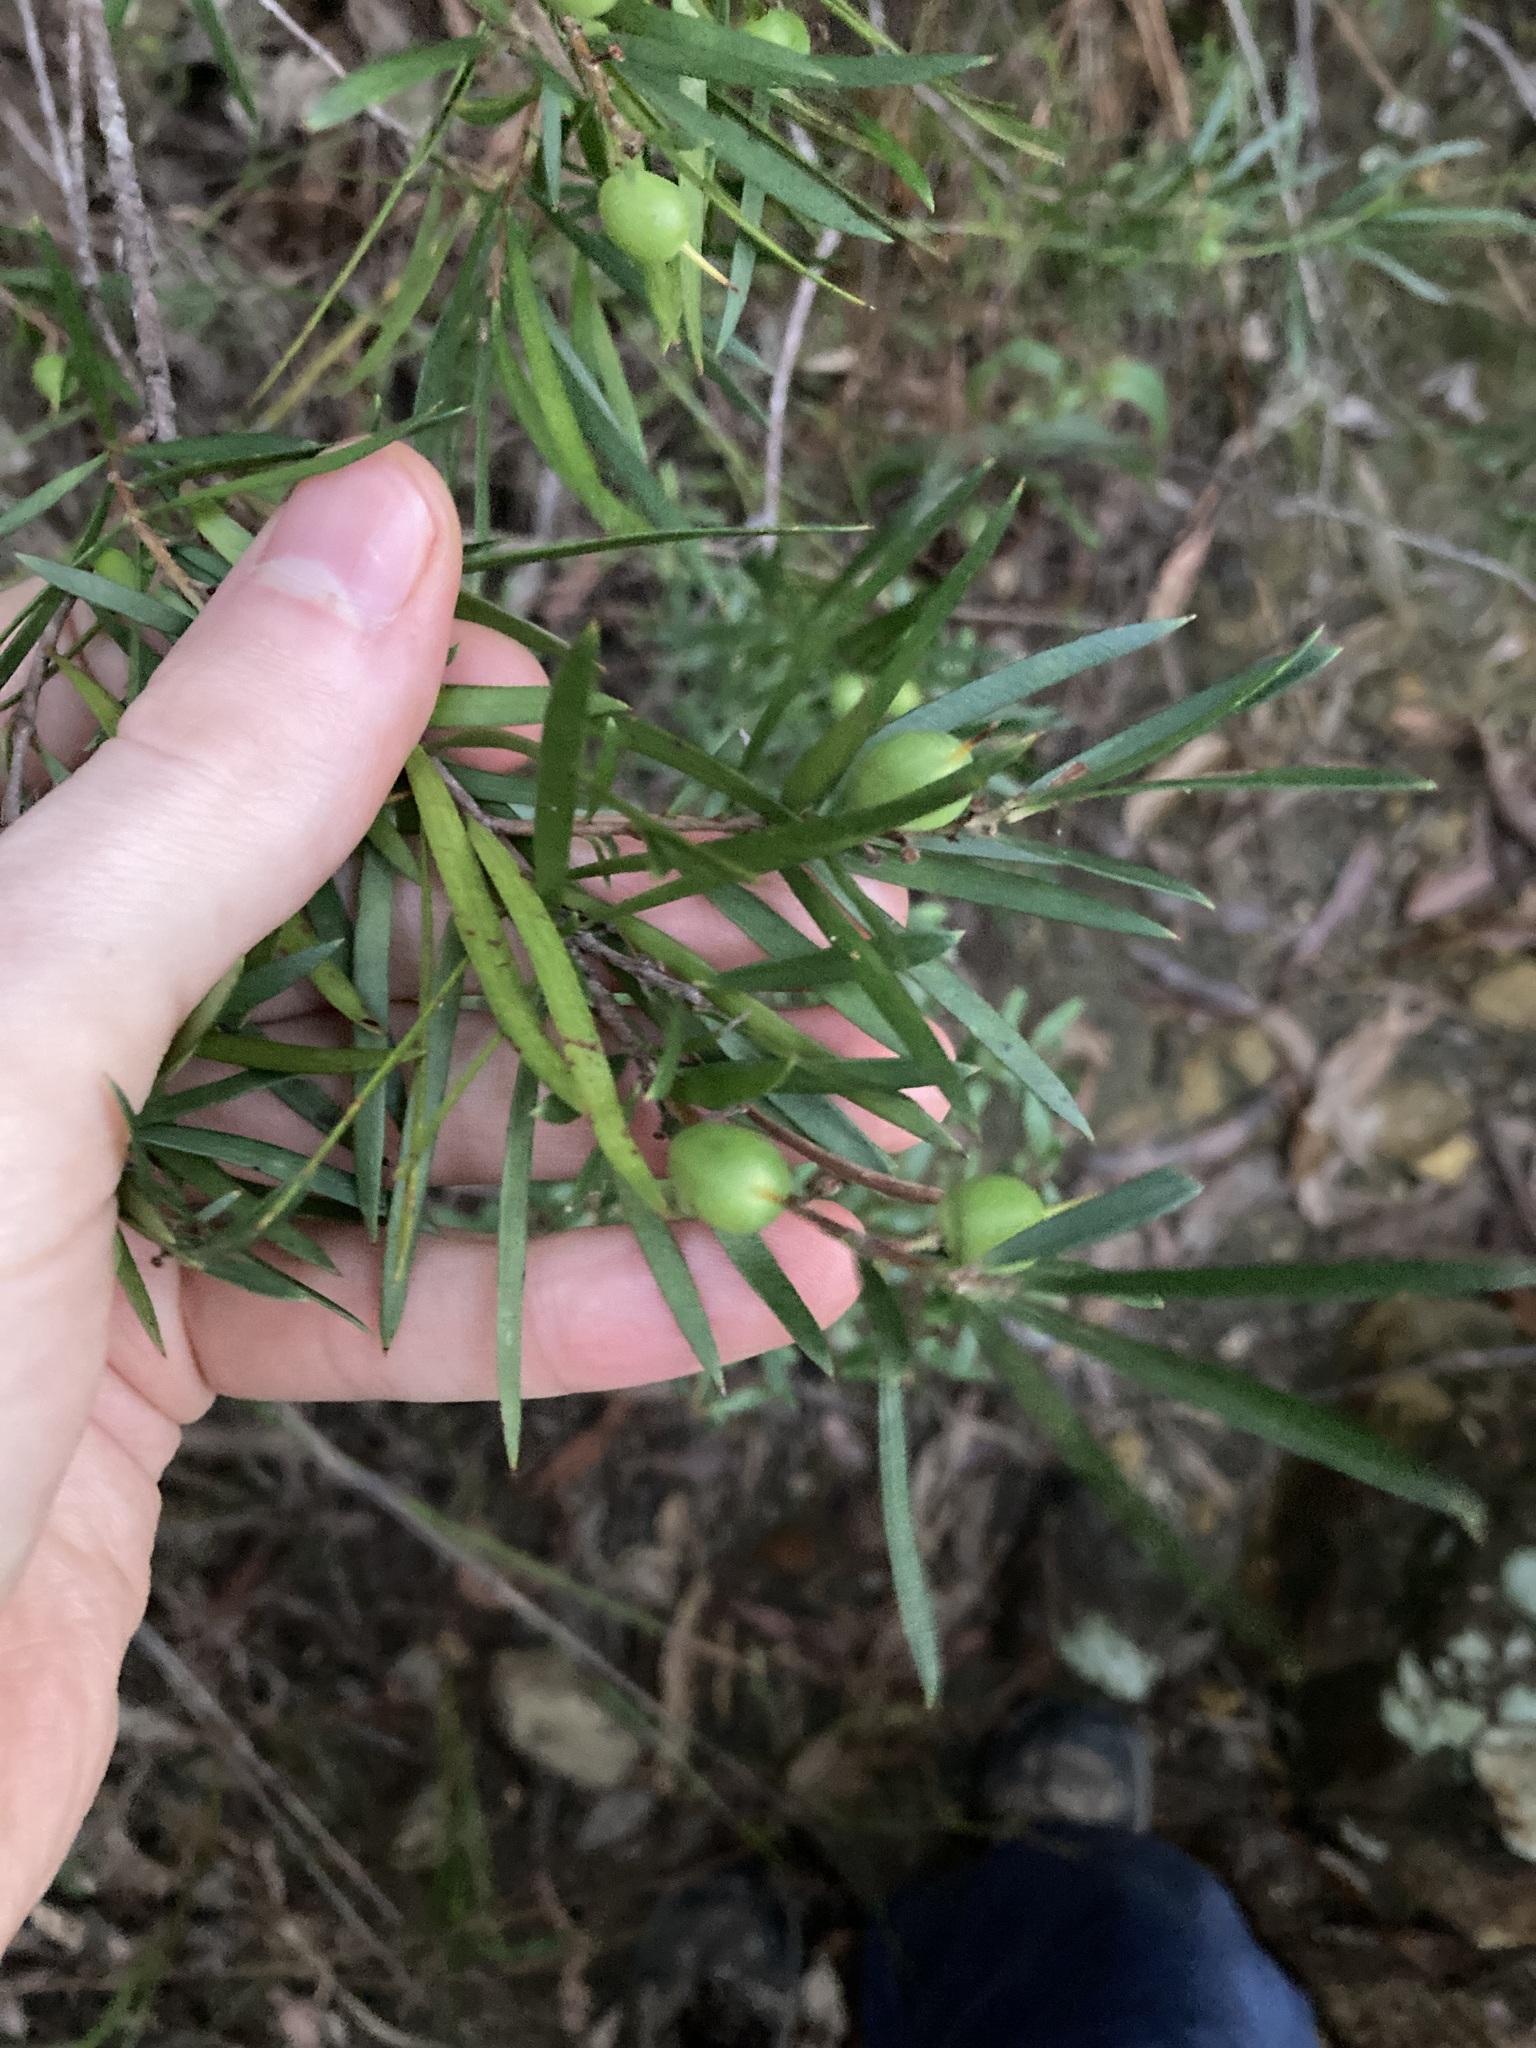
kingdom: Plantae
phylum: Tracheophyta
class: Magnoliopsida
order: Proteales
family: Proteaceae
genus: Persoonia
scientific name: Persoonia linearis
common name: Narrow-leaf geebung
